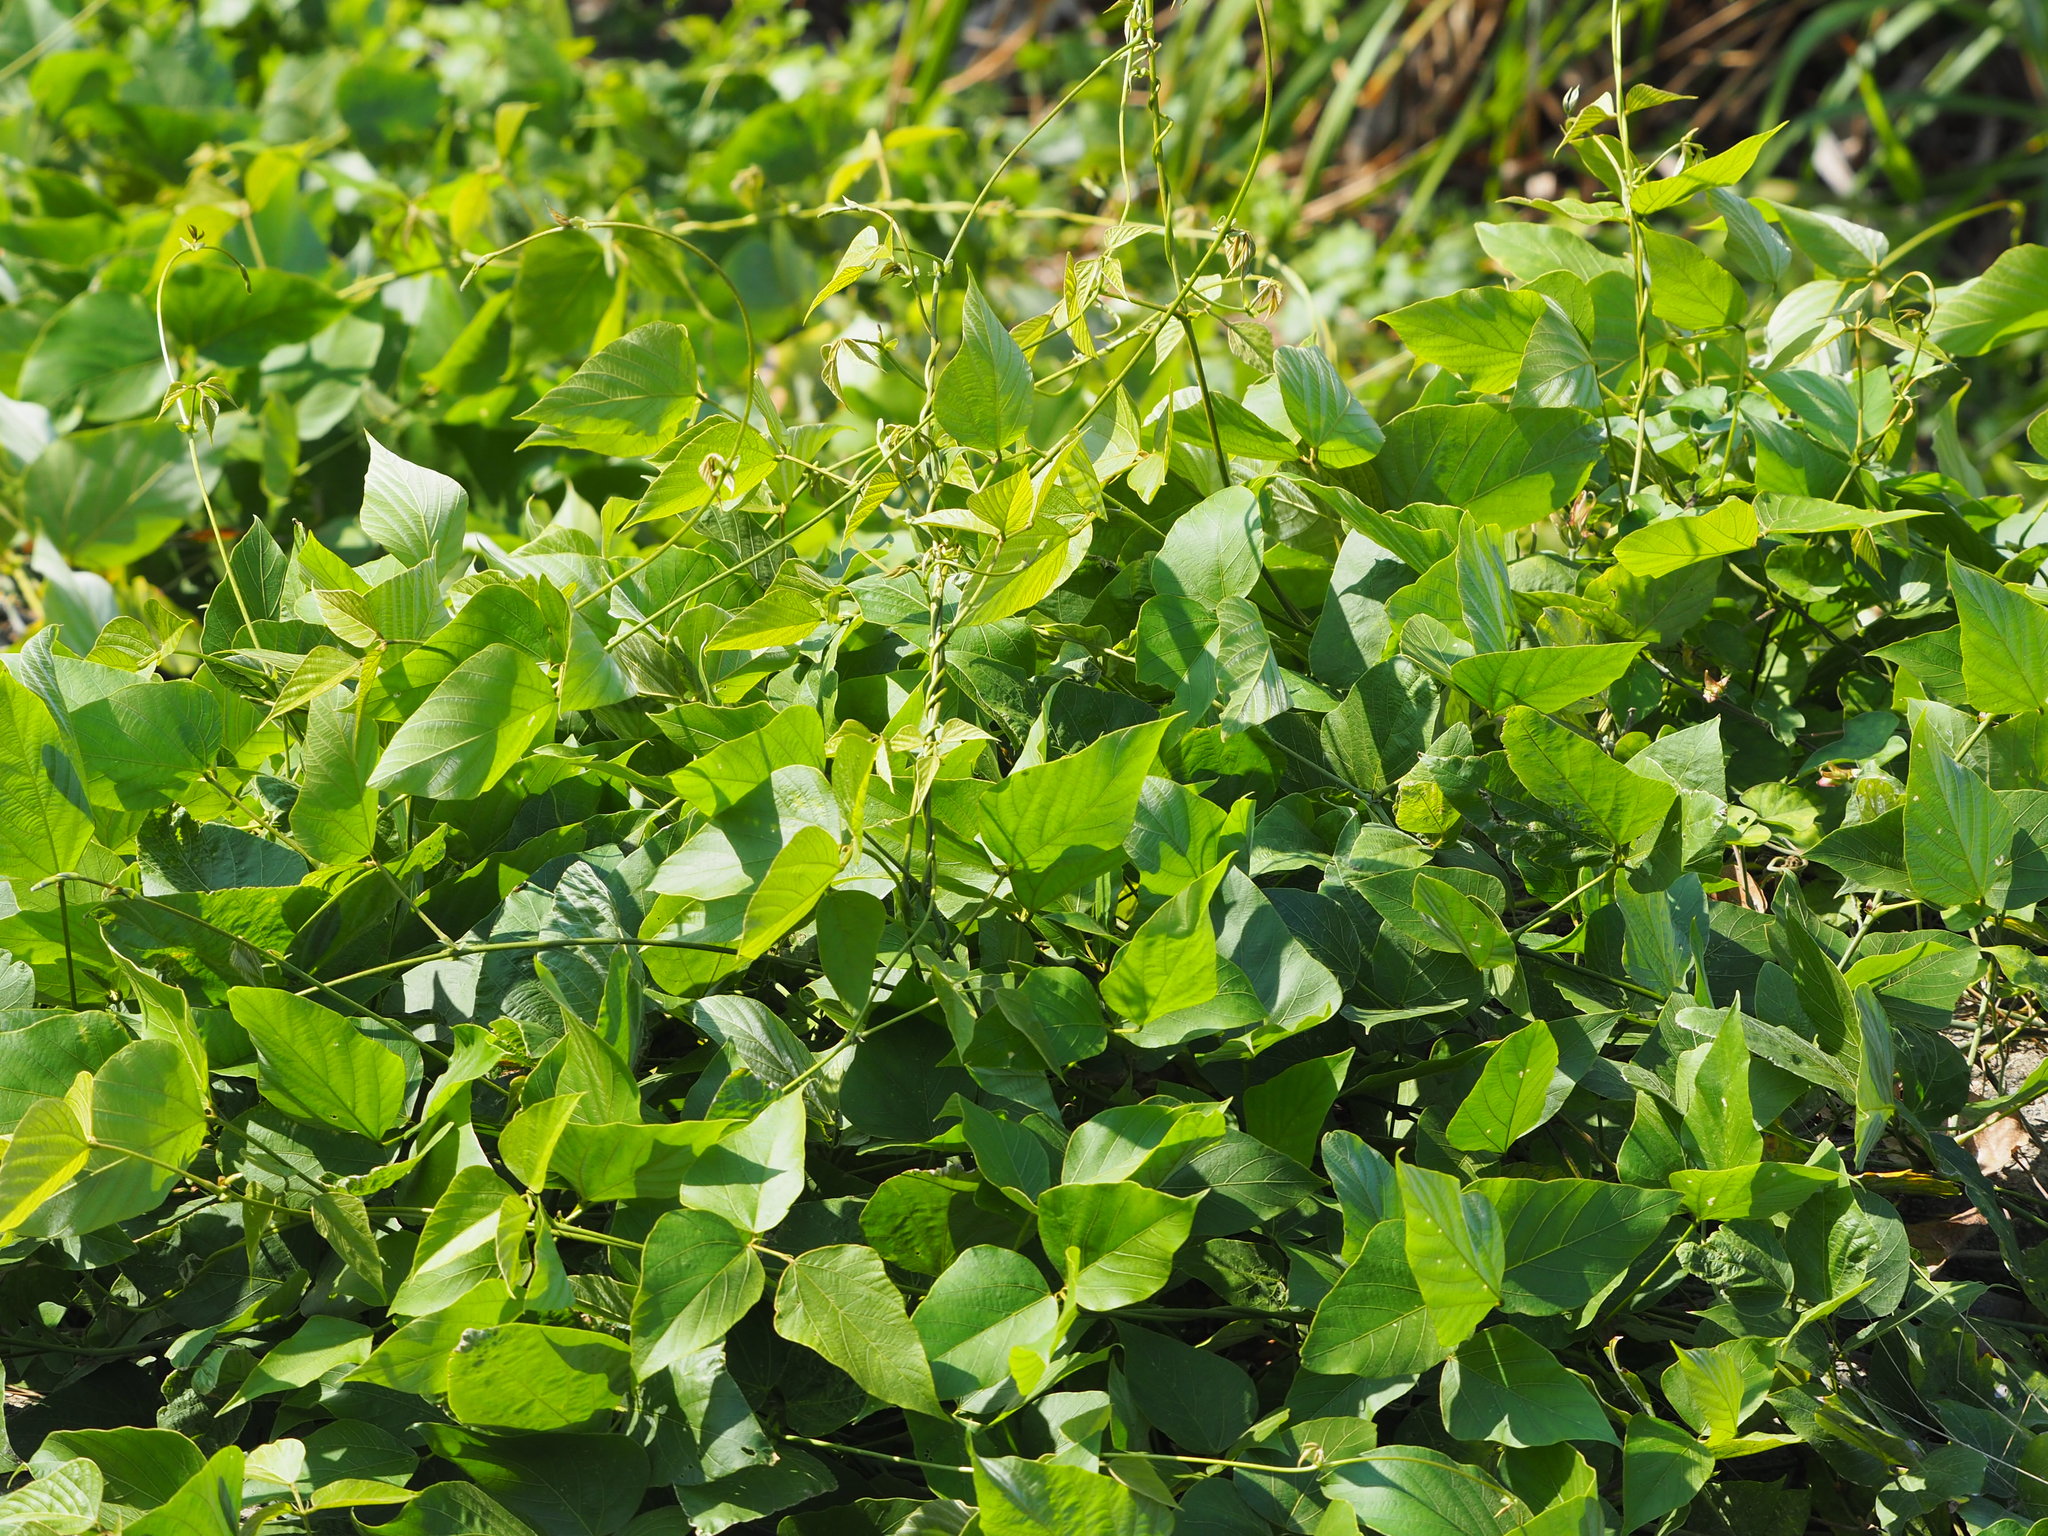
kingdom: Plantae
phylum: Tracheophyta
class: Magnoliopsida
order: Fabales
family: Fabaceae
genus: Pueraria
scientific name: Pueraria montana
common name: Kudzu
